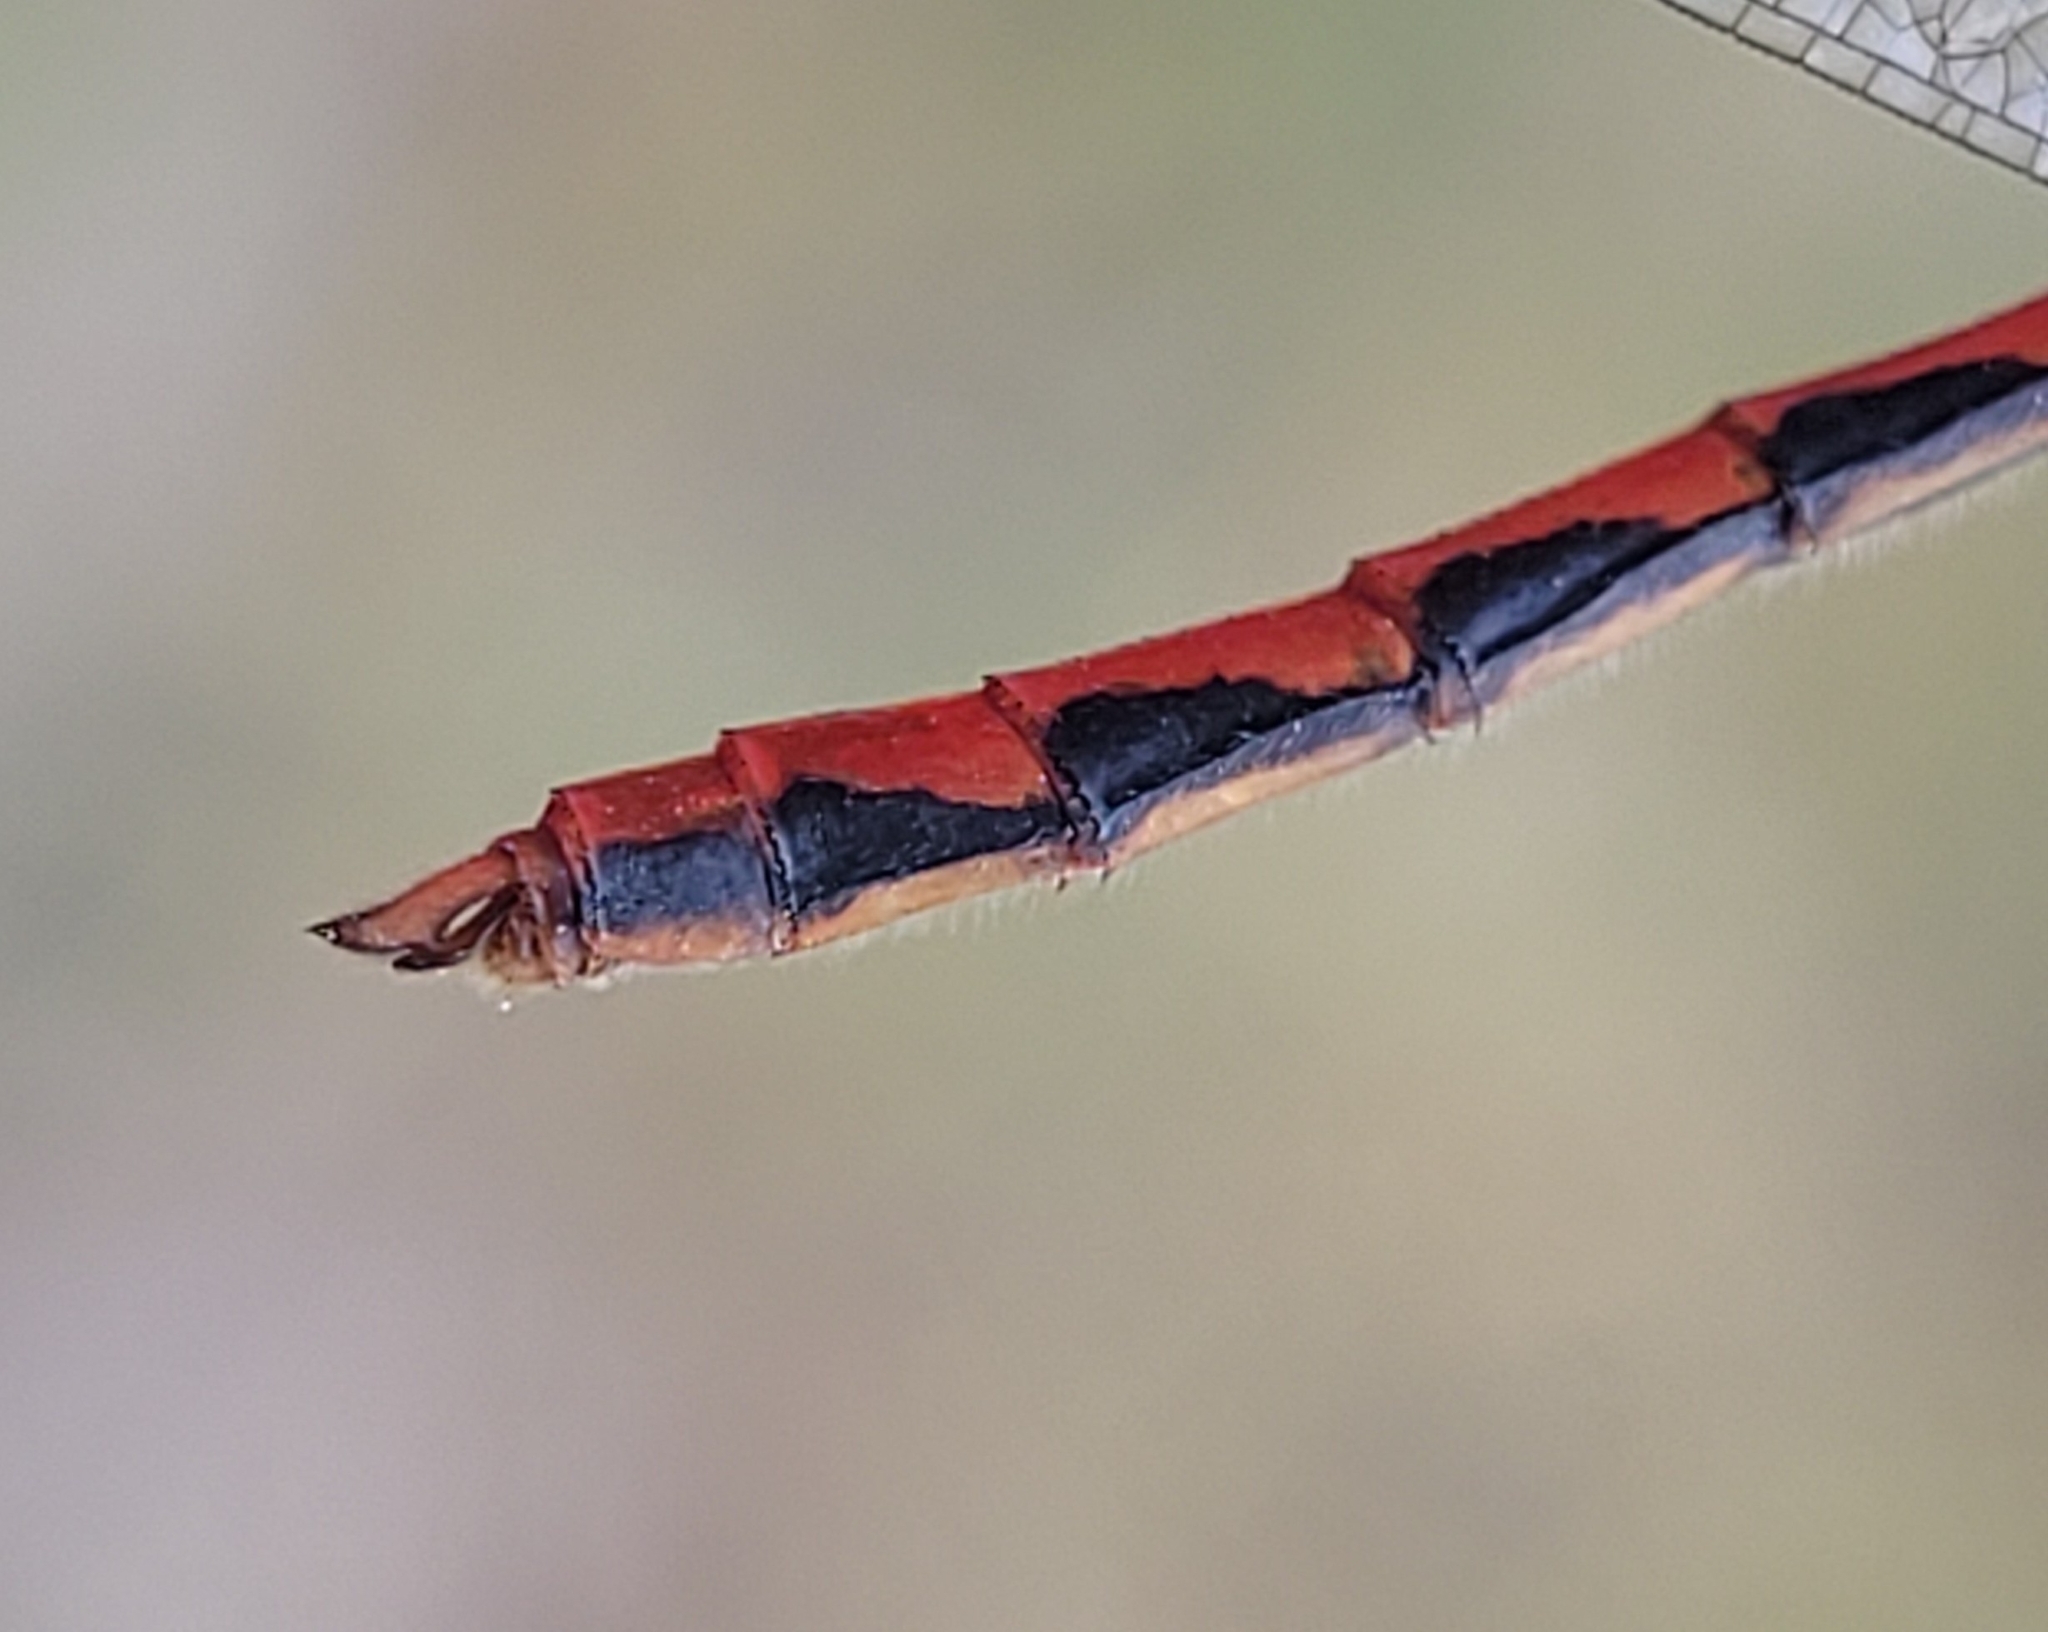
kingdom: Animalia
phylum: Arthropoda
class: Insecta
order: Odonata
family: Libellulidae
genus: Sympetrum
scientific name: Sympetrum obtrusum
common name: White-faced meadowhawk
